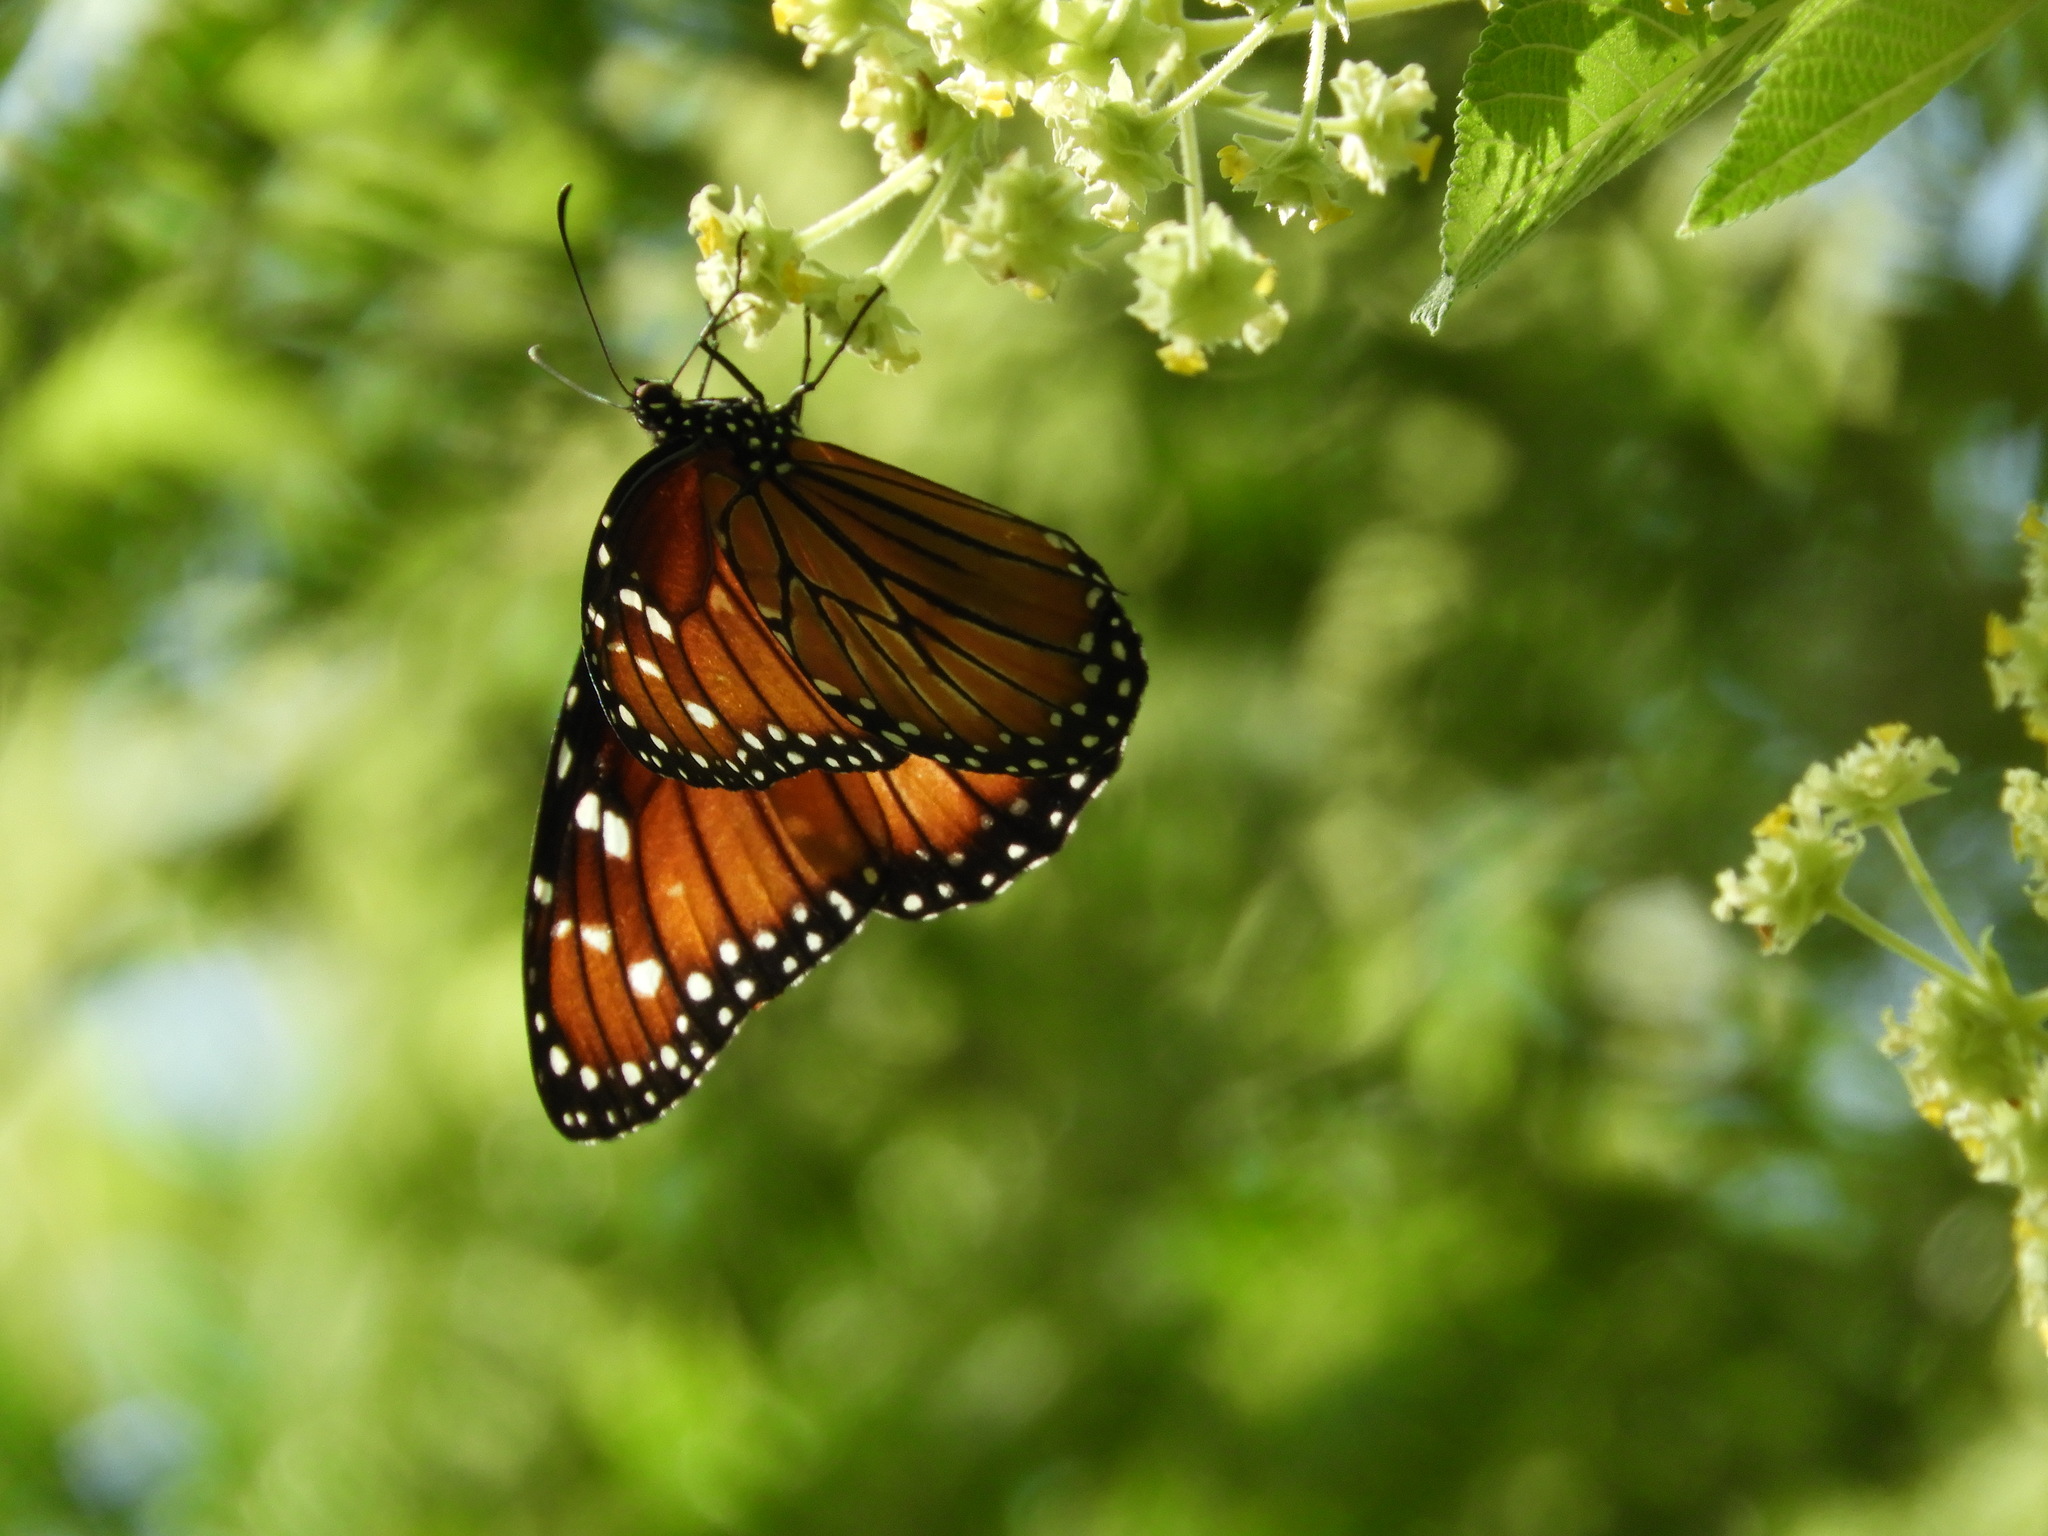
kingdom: Animalia
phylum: Arthropoda
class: Insecta
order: Lepidoptera
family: Nymphalidae
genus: Danaus
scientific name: Danaus eresimus
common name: Soldier
